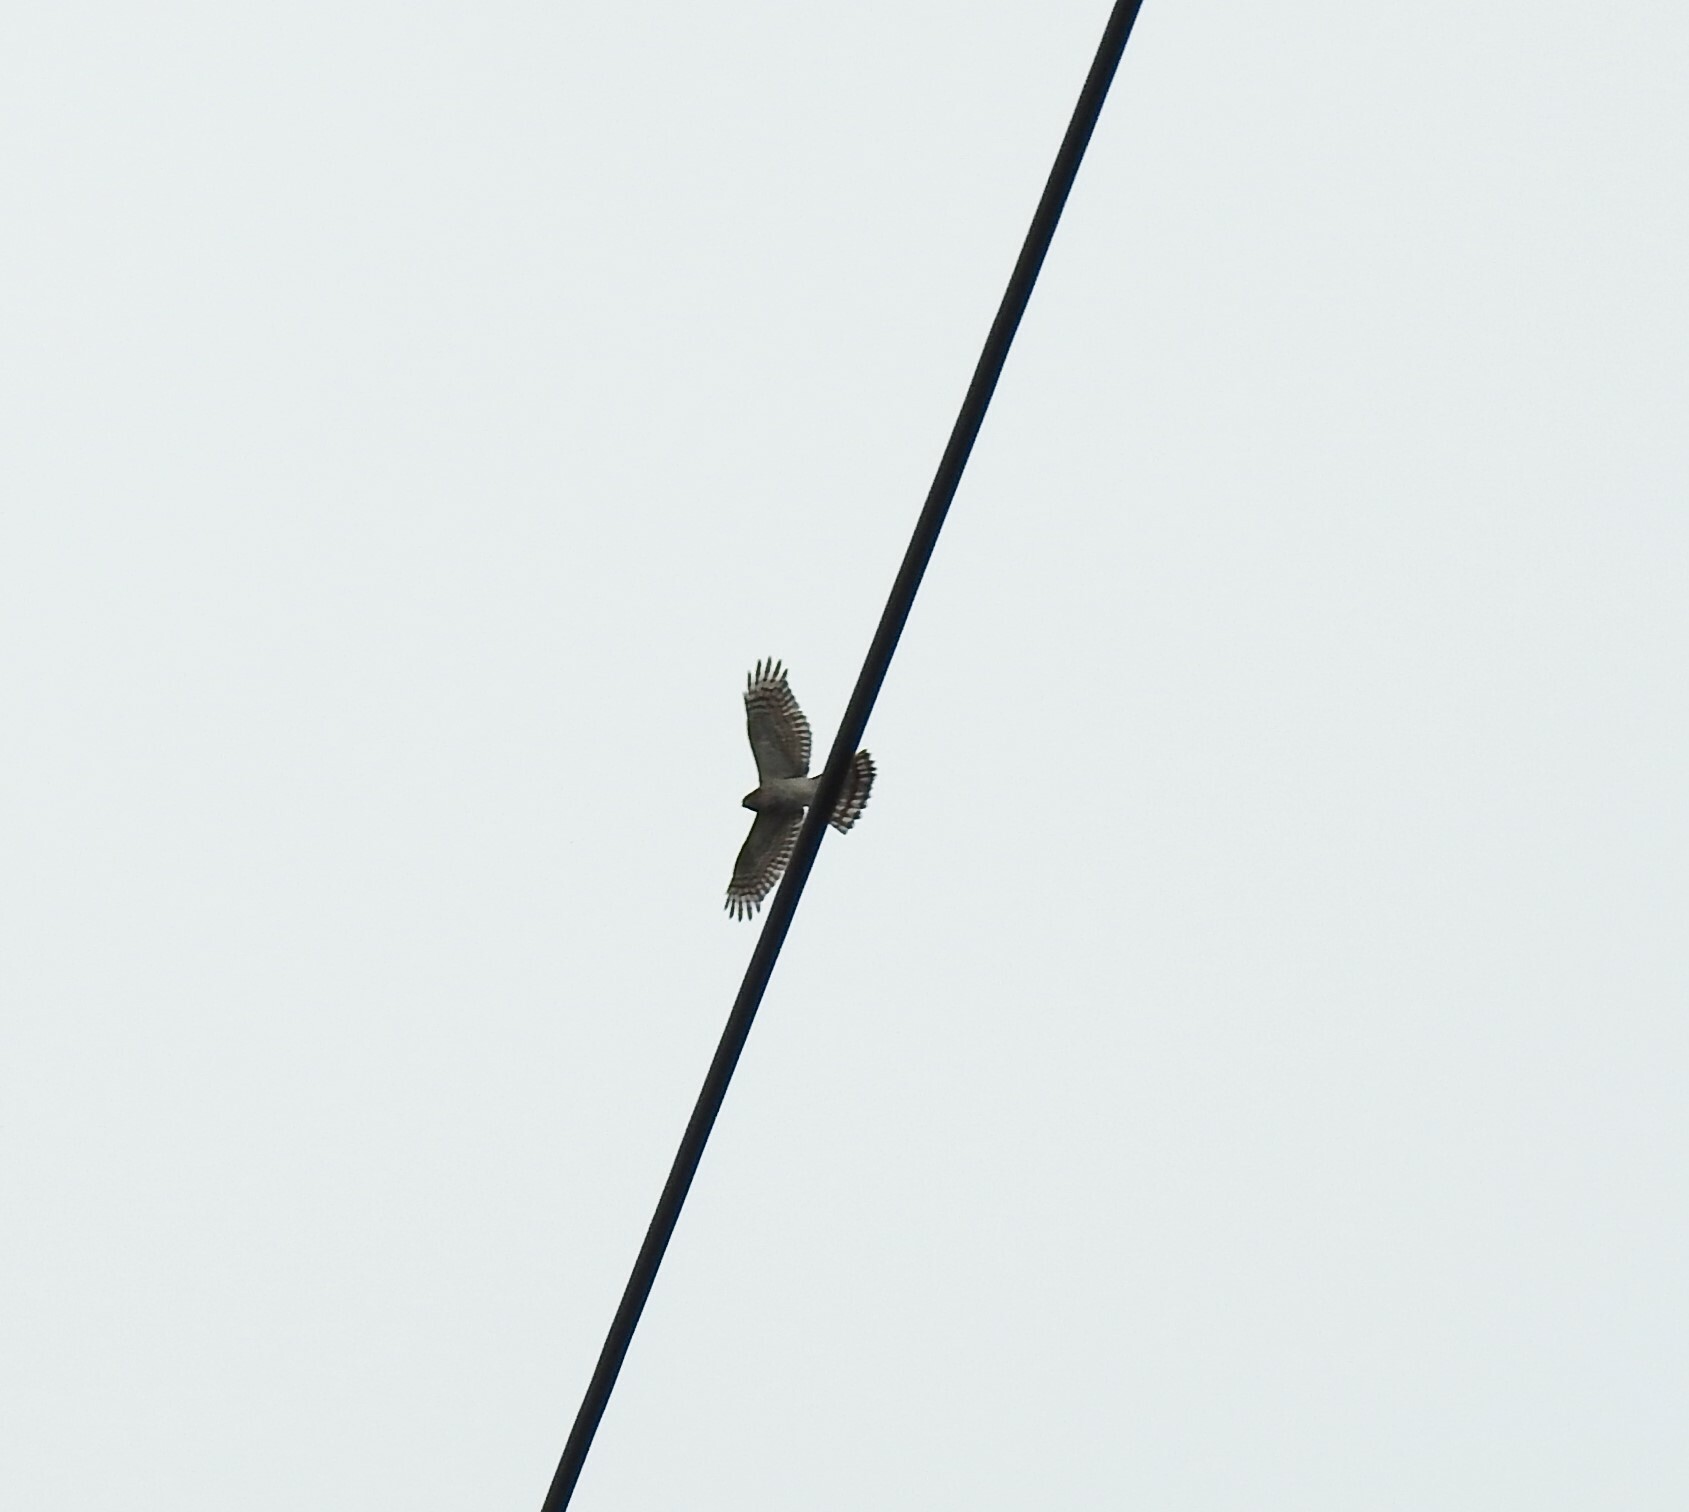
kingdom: Animalia
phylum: Chordata
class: Aves
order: Accipitriformes
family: Accipitridae
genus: Accipiter
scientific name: Accipiter nisus
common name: Eurasian sparrowhawk
